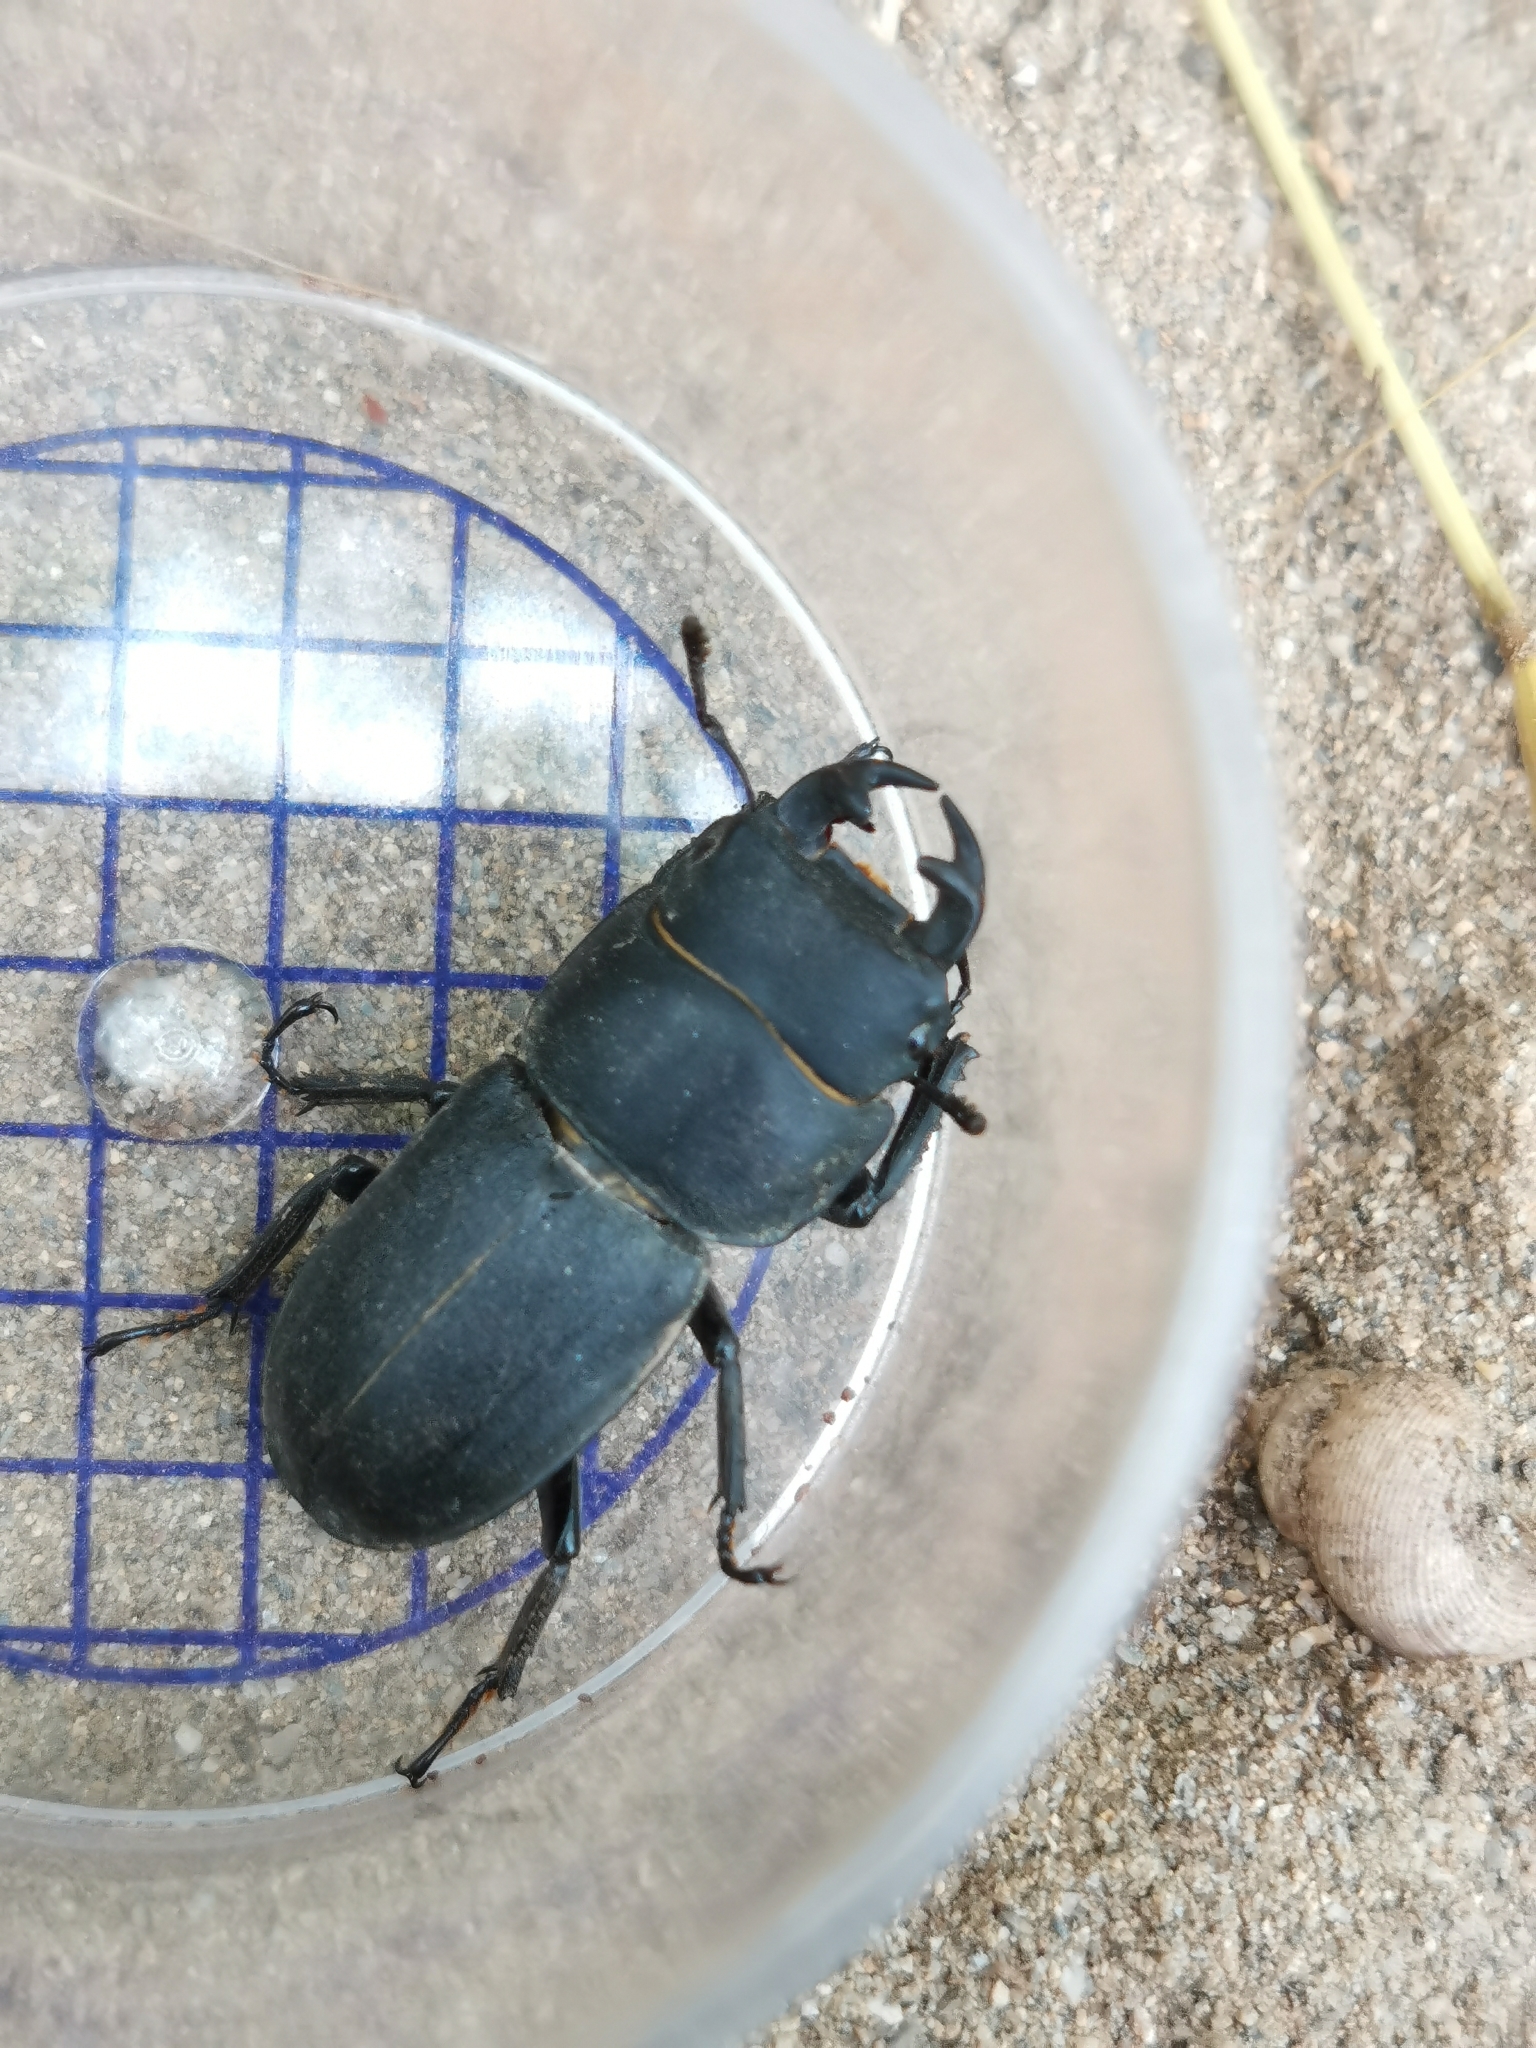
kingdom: Animalia
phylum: Arthropoda
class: Insecta
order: Coleoptera
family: Lucanidae
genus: Dorcus
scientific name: Dorcus parallelipipedus
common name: Lesser stag beetle
